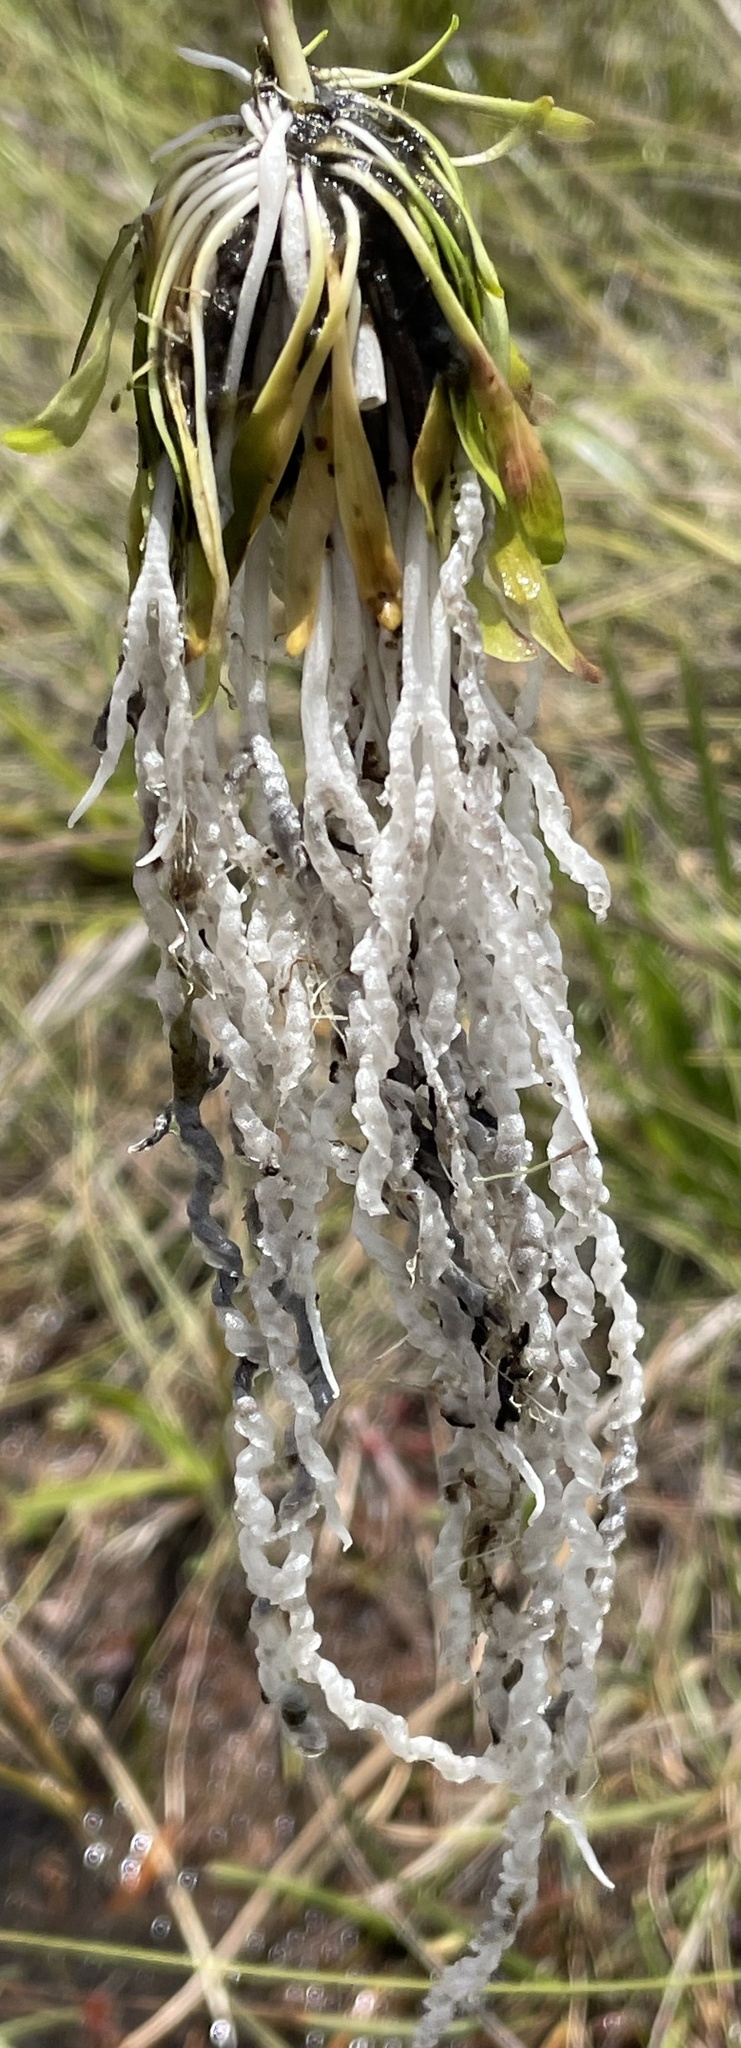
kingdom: Plantae
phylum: Tracheophyta
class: Magnoliopsida
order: Lamiales
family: Lentibulariaceae
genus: Genlisea
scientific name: Genlisea angolensis
